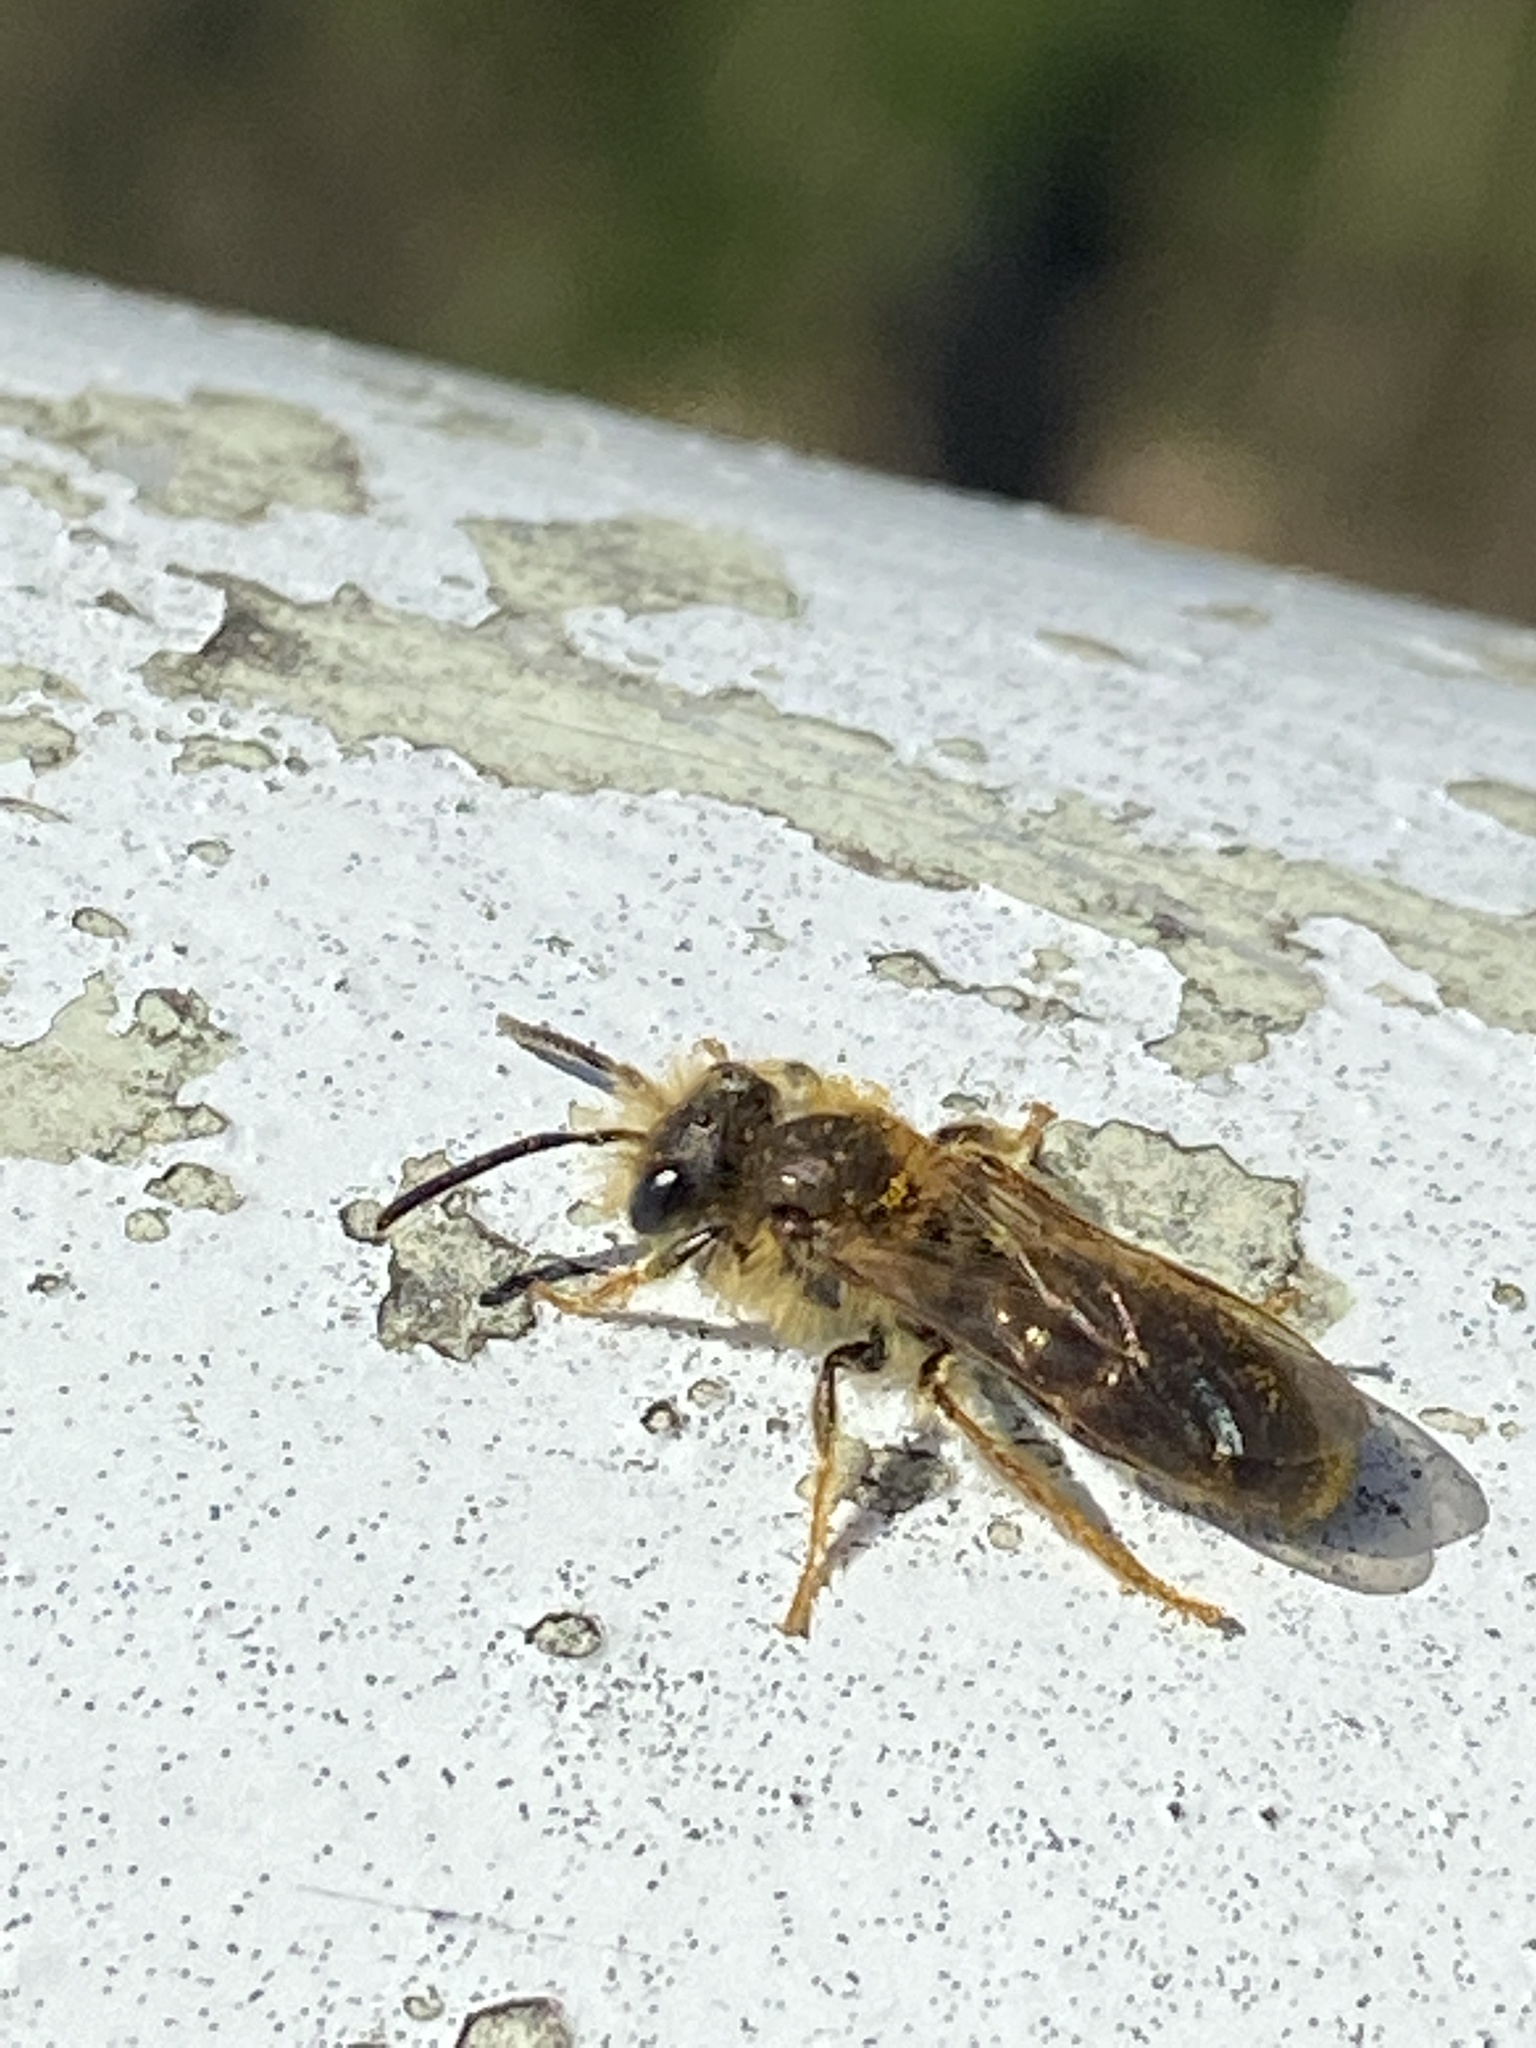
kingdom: Animalia
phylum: Arthropoda
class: Insecta
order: Hymenoptera
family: Andrenidae
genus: Andrena
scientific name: Andrena haemorrhoa
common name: Early mining bee
